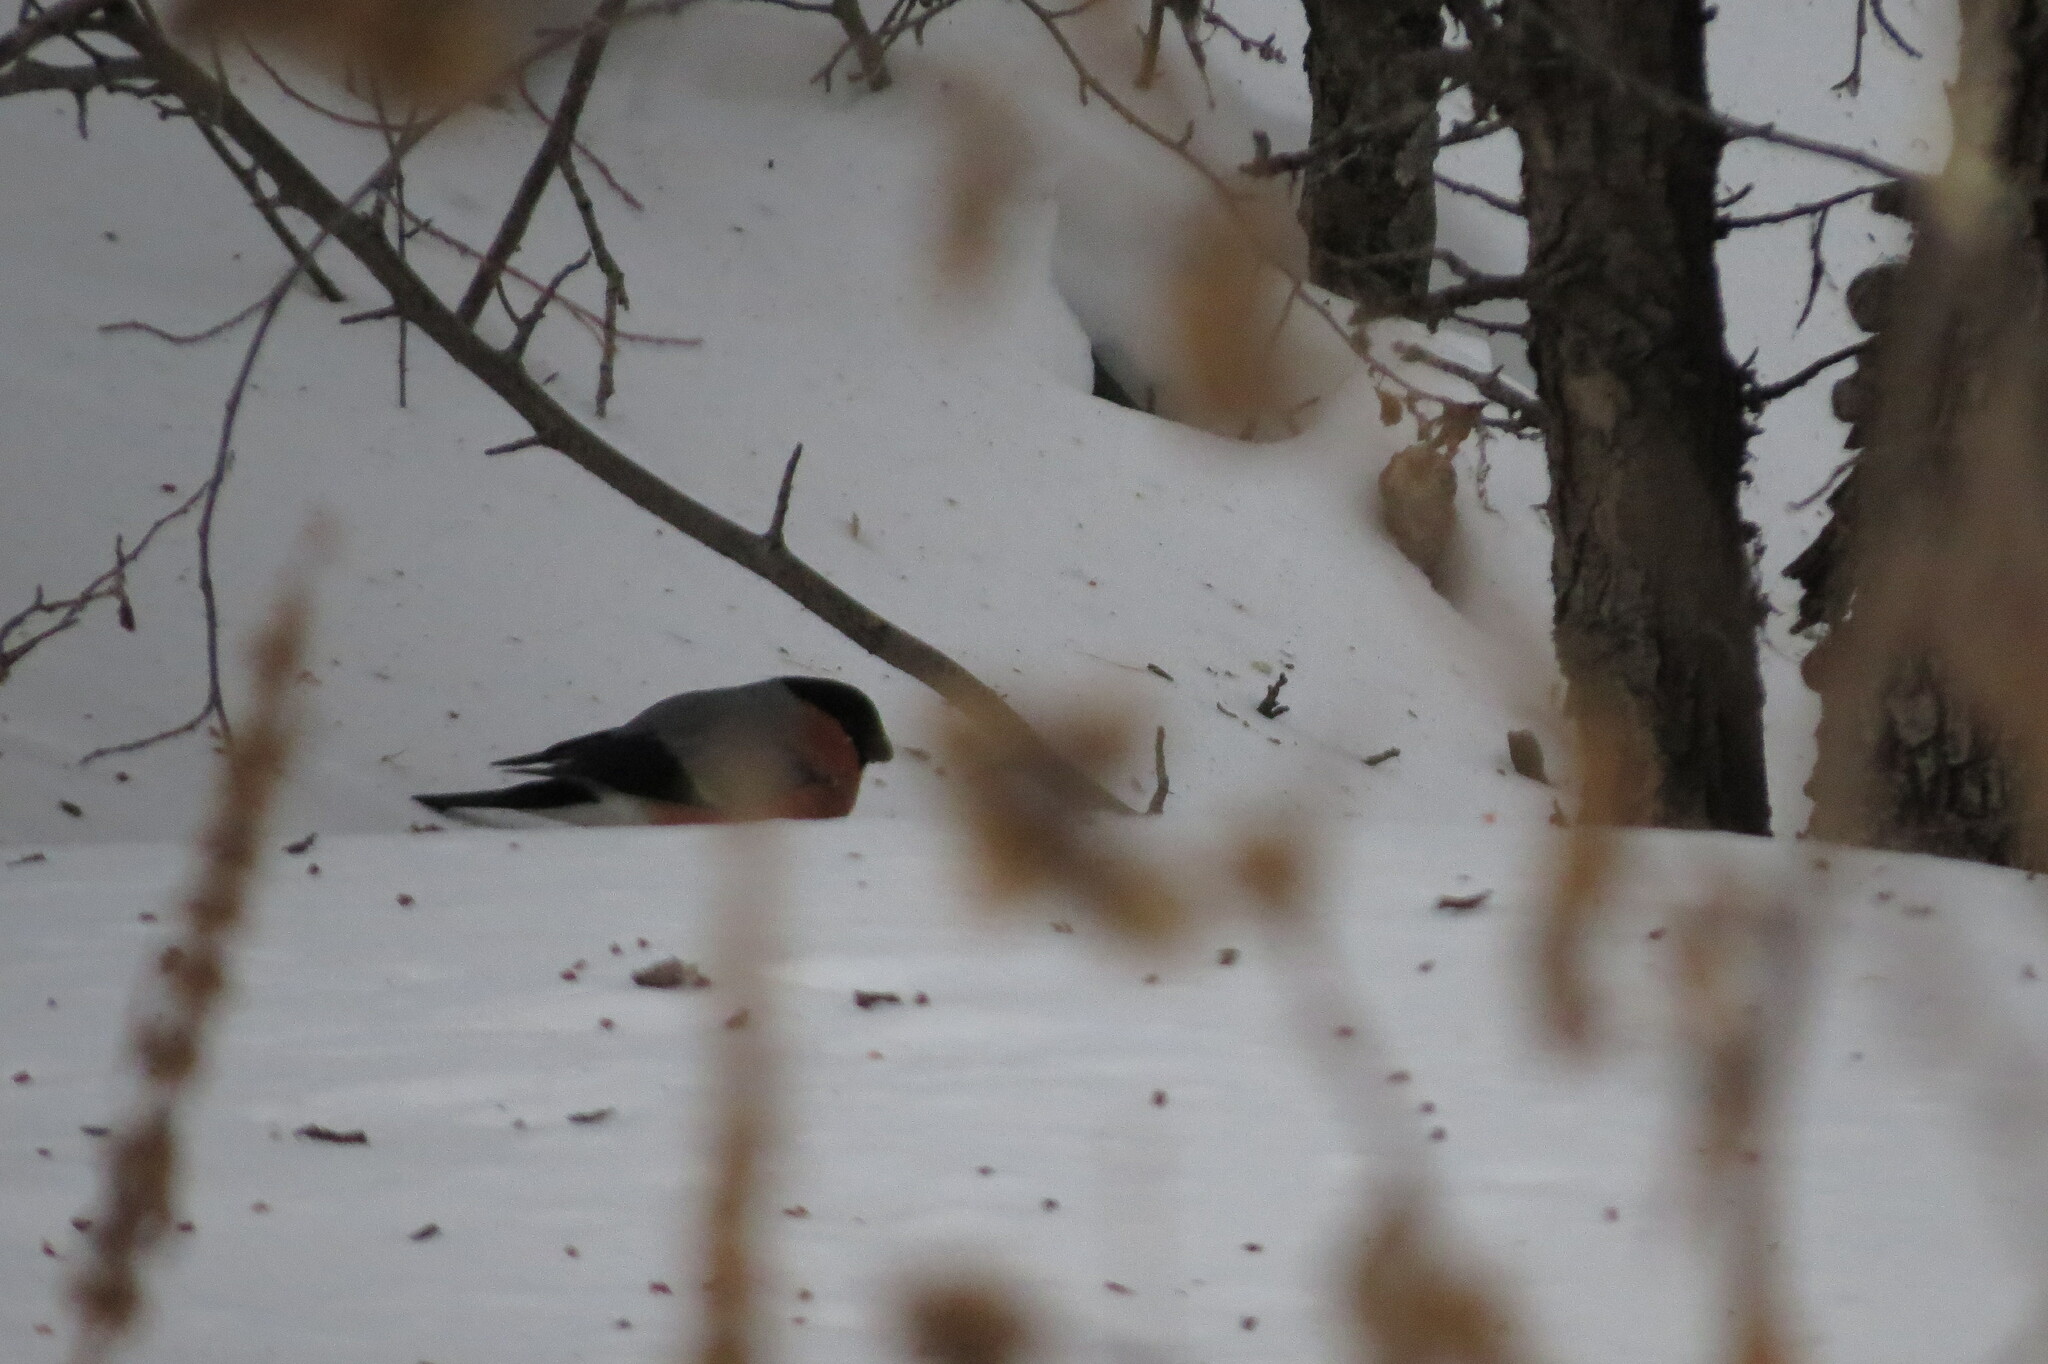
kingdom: Animalia
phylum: Chordata
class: Aves
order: Passeriformes
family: Fringillidae
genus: Pyrrhula
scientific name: Pyrrhula pyrrhula
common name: Eurasian bullfinch
